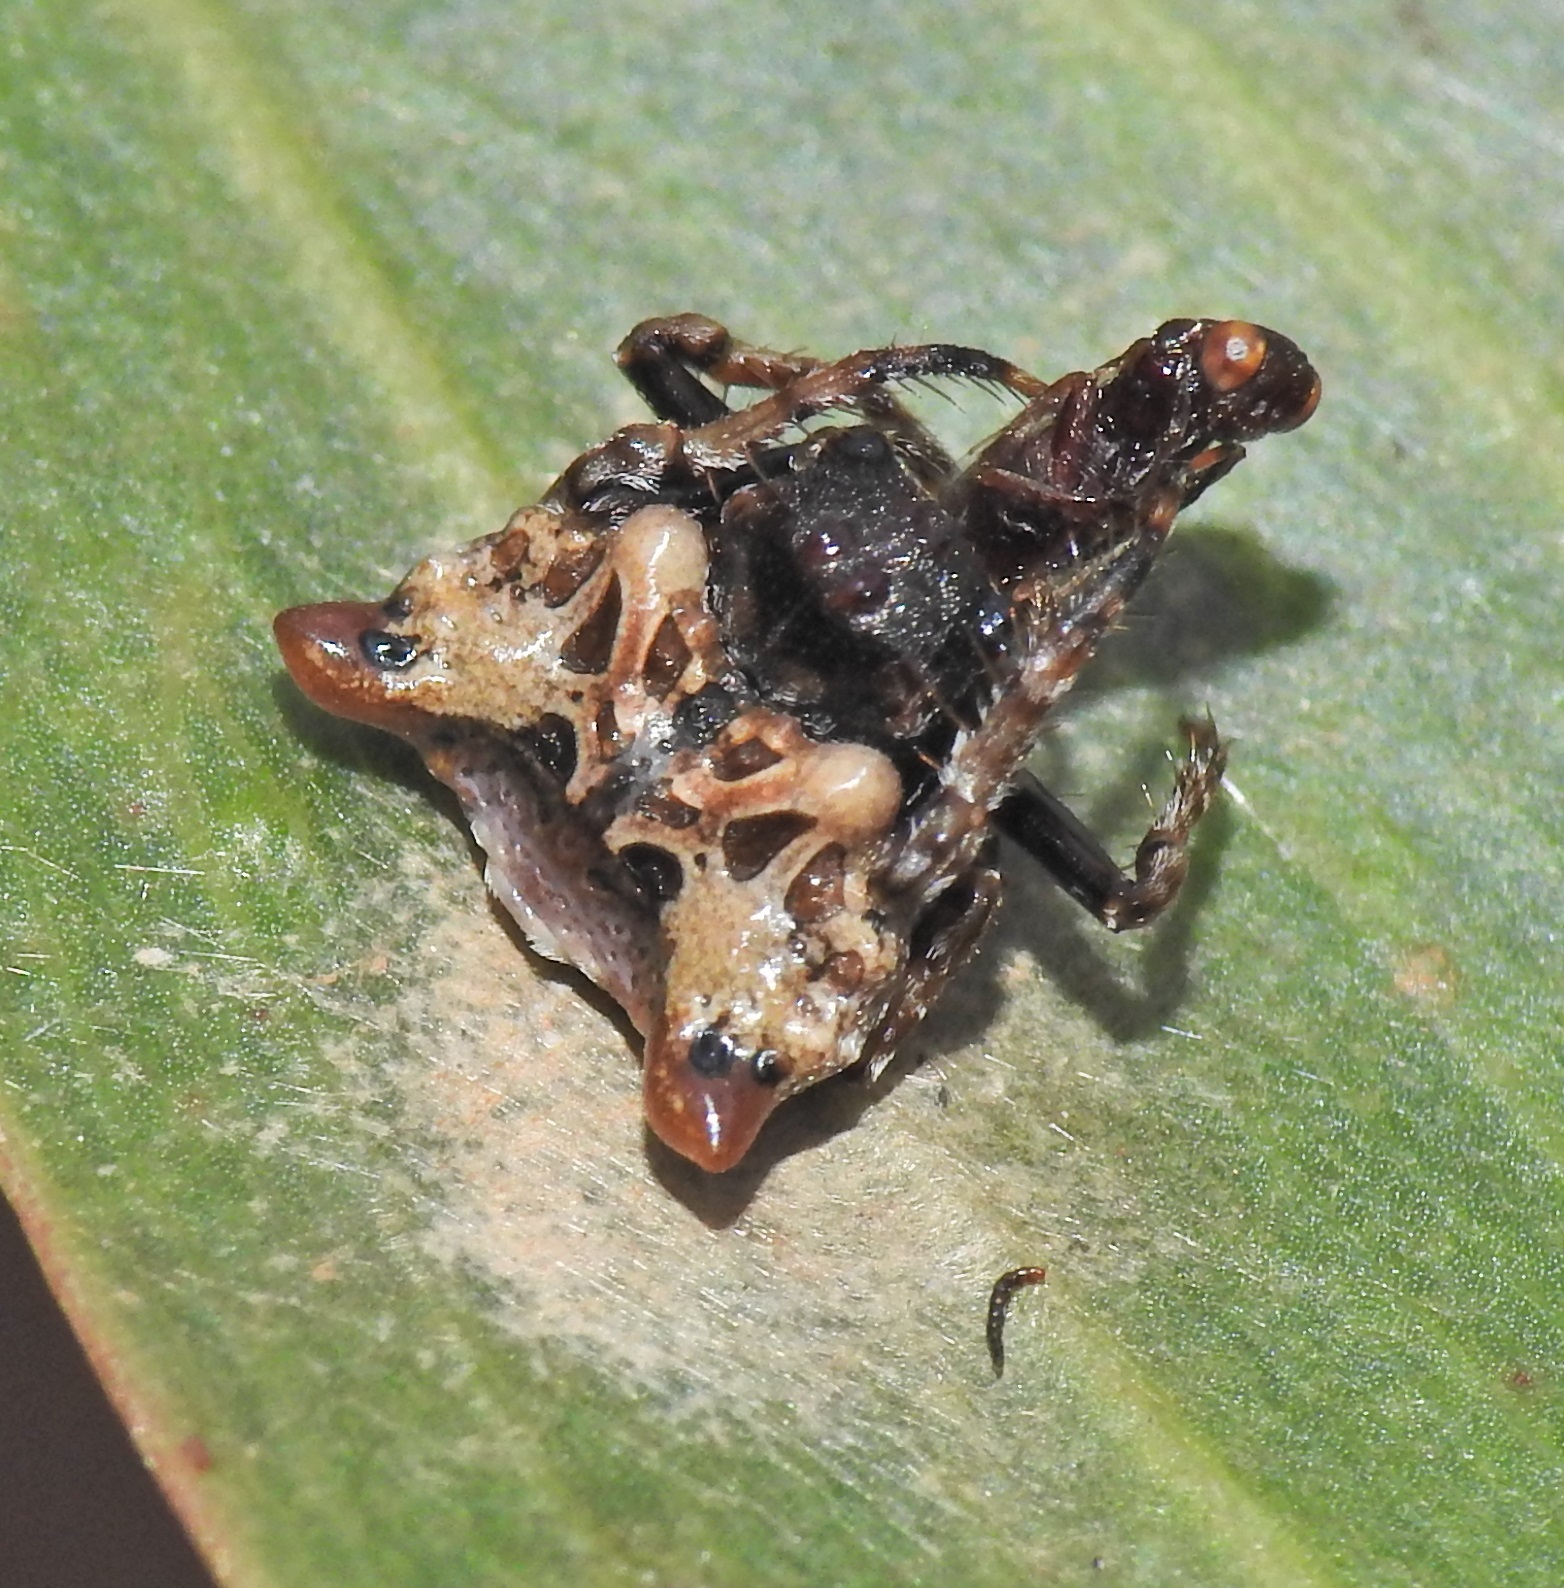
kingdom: Animalia
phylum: Arthropoda
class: Arachnida
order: Araneae
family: Arkyidae
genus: Arkys
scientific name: Arkys curtulus
